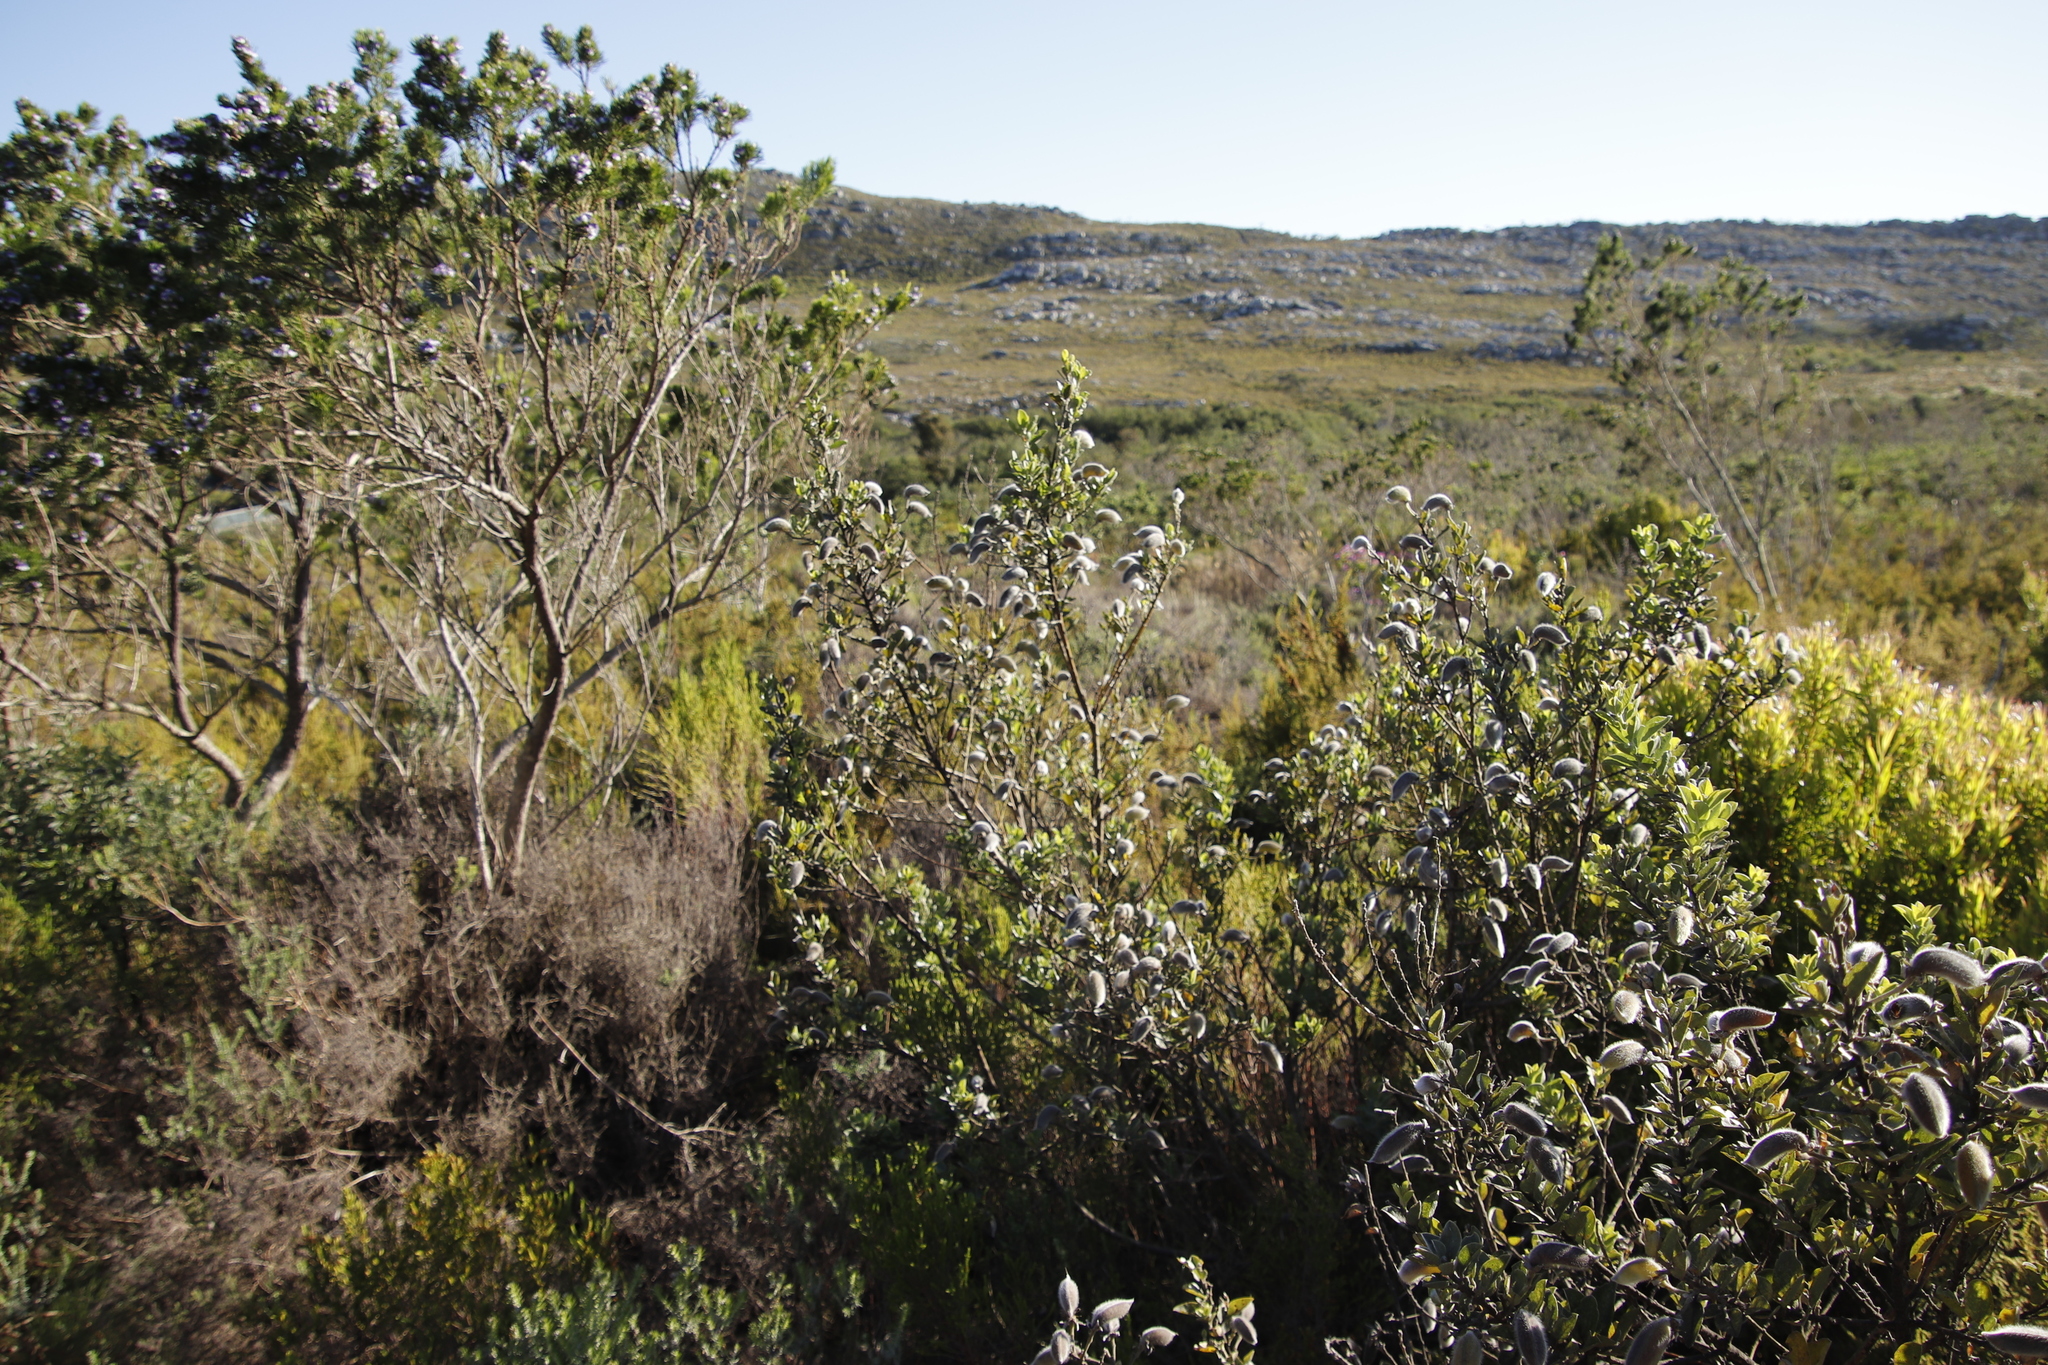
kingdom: Plantae
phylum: Tracheophyta
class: Magnoliopsida
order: Fabales
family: Fabaceae
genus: Podalyria
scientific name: Podalyria calyptrata
